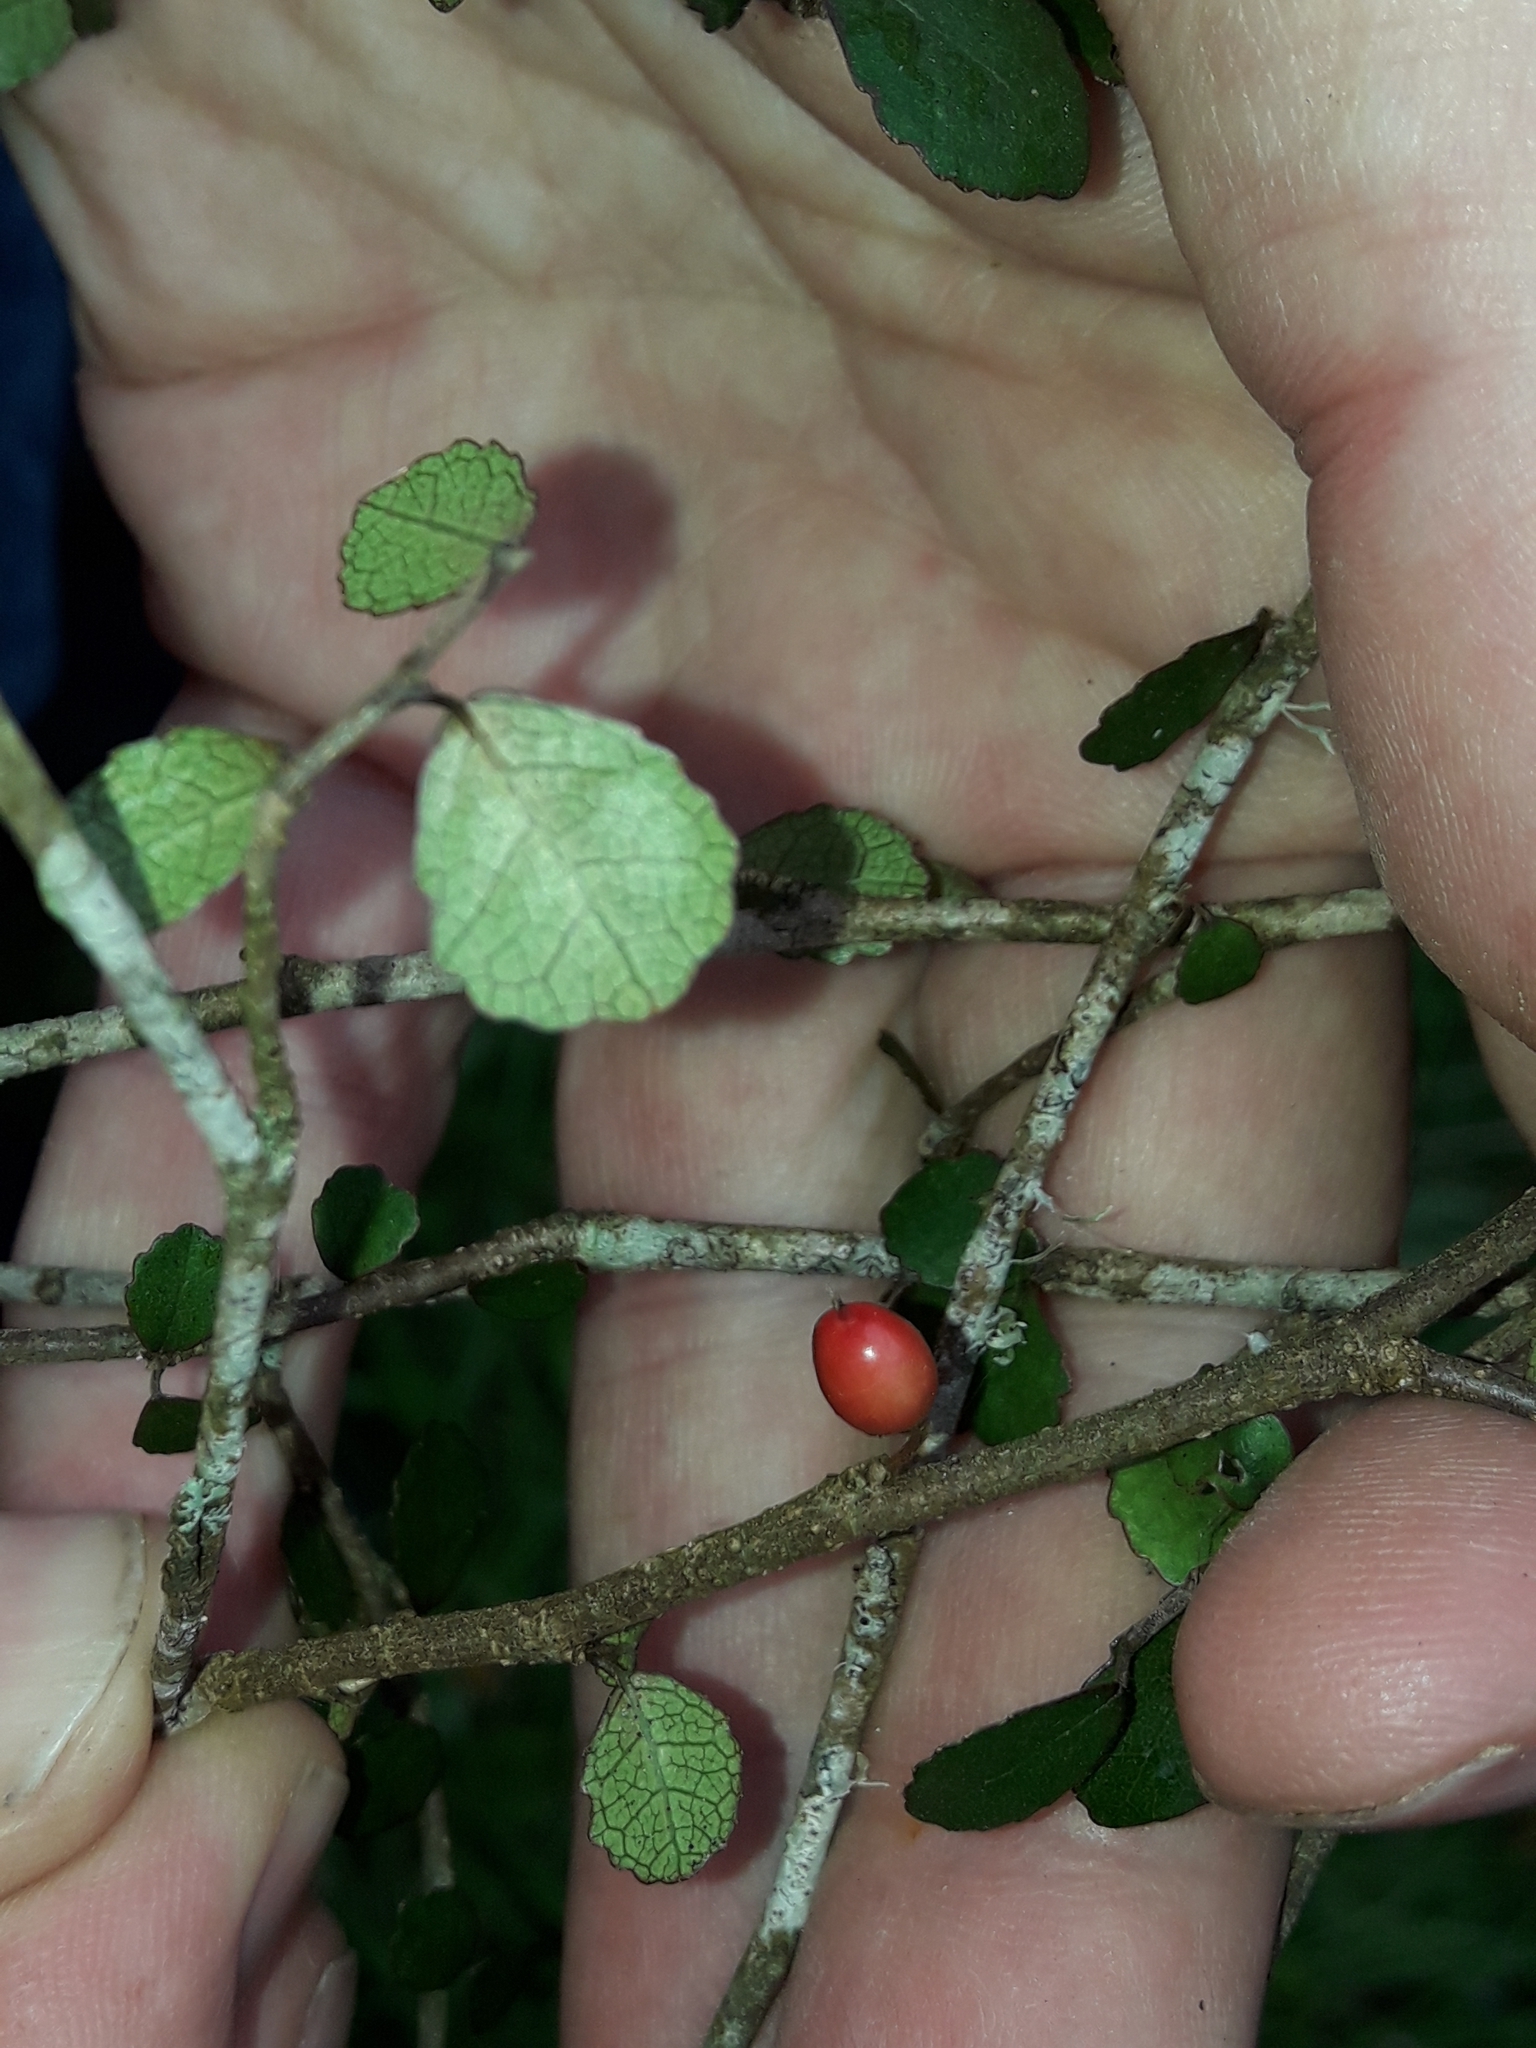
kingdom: Plantae
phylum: Tracheophyta
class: Magnoliopsida
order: Rosales
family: Moraceae
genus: Paratrophis
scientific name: Paratrophis microphylla
